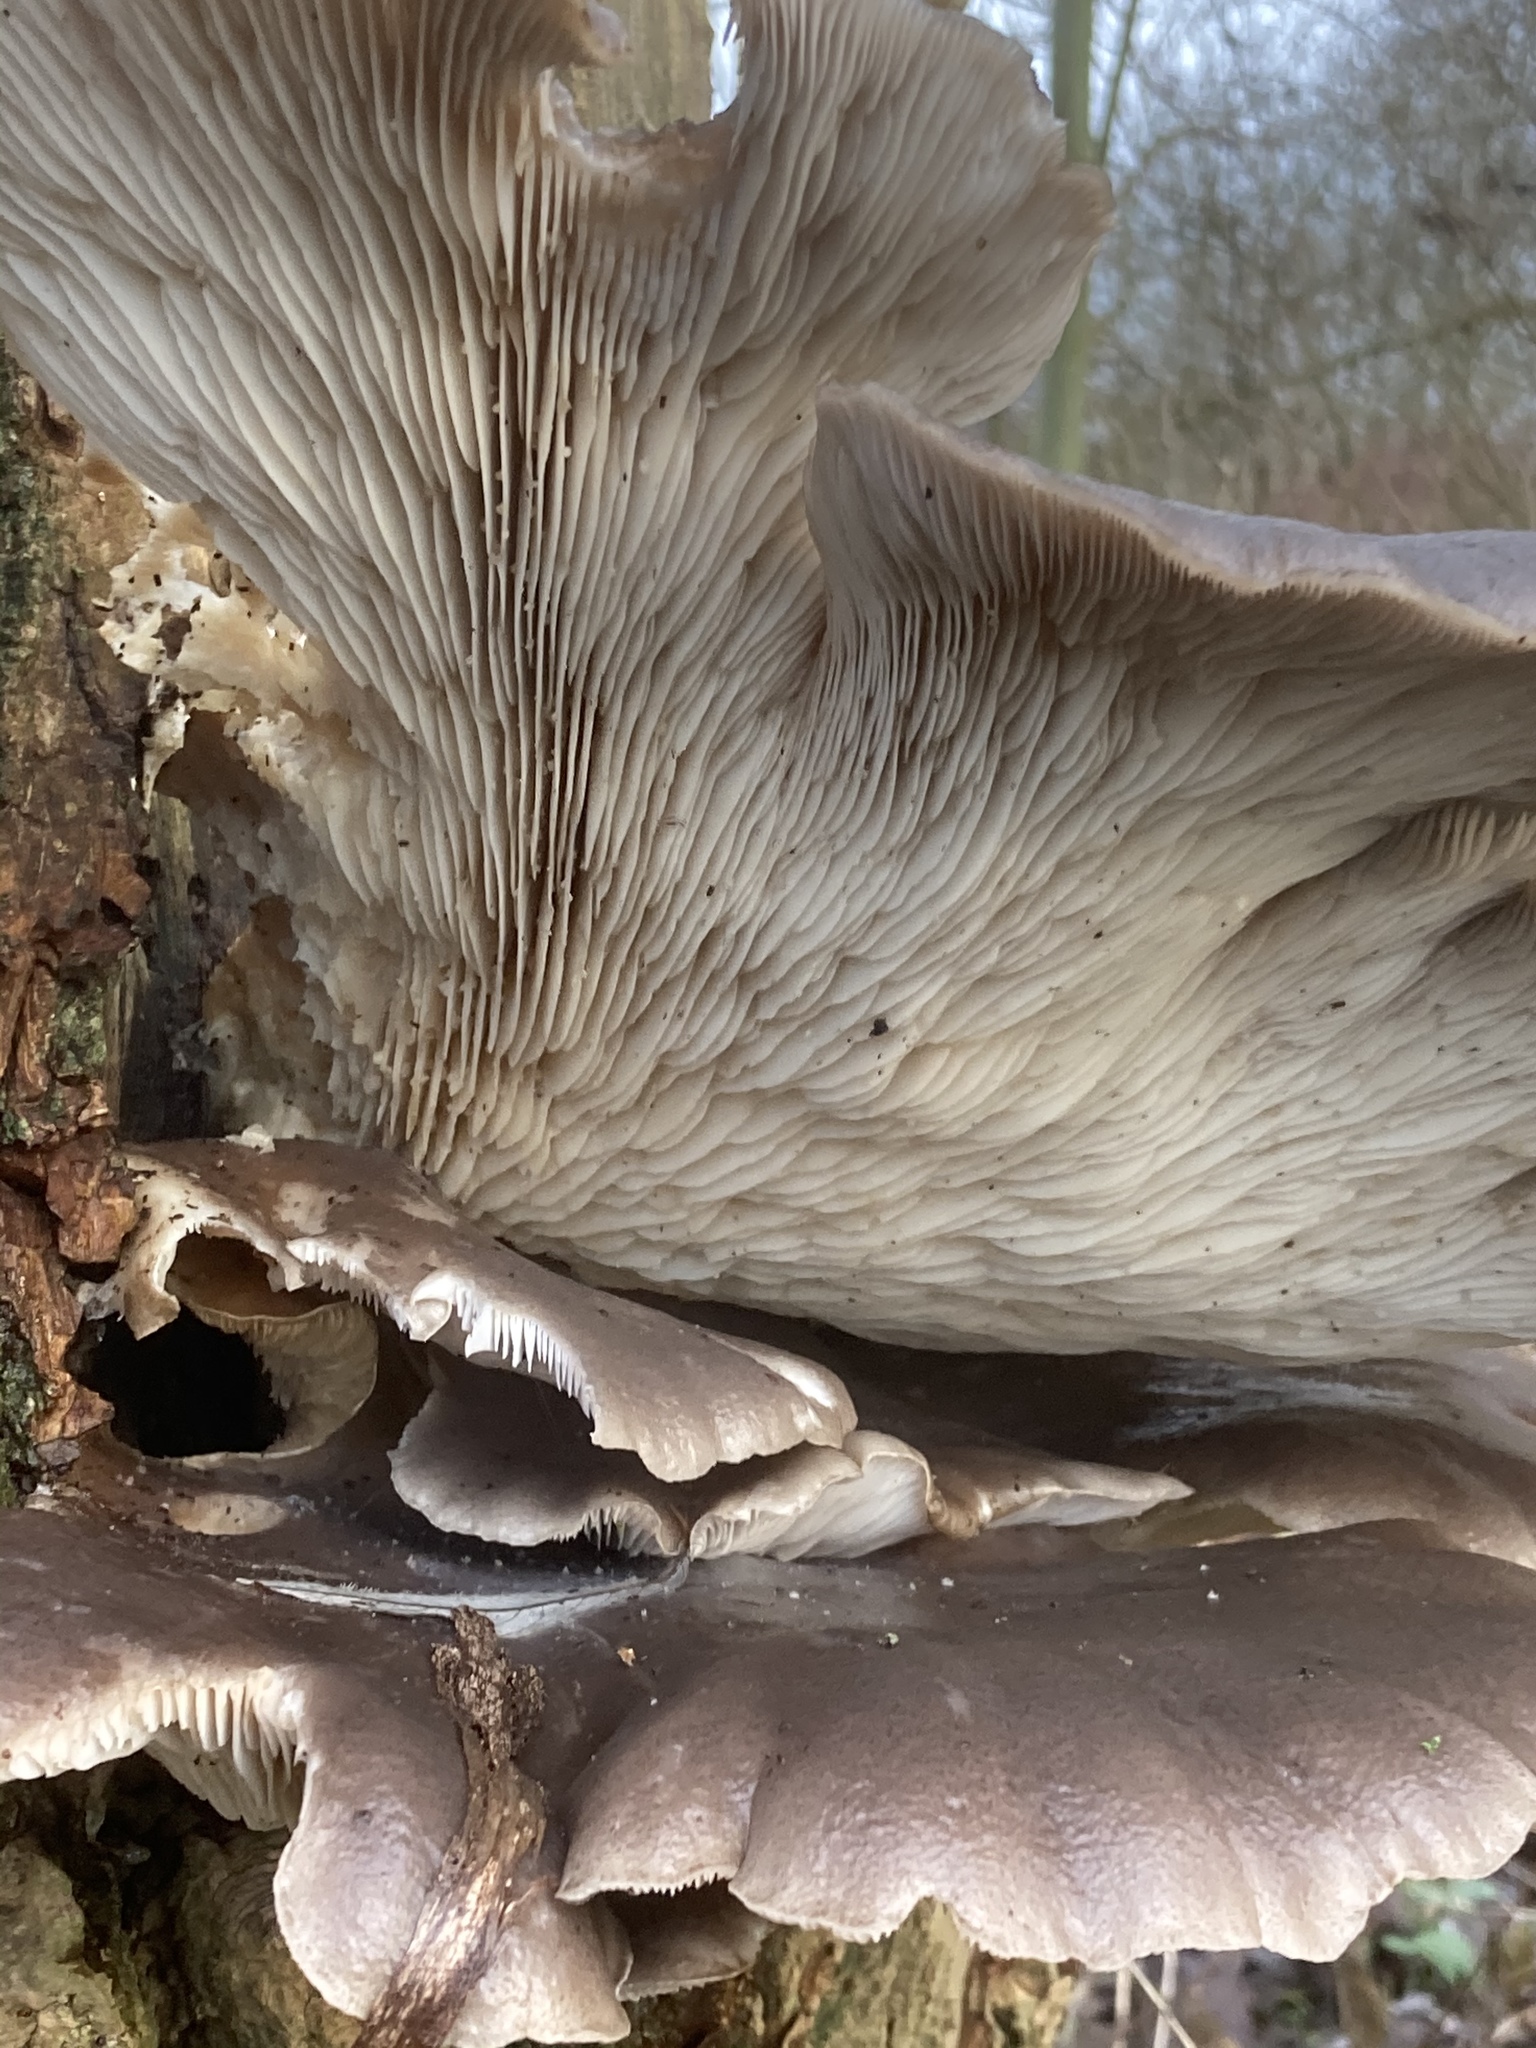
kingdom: Fungi
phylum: Basidiomycota
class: Agaricomycetes
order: Agaricales
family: Pleurotaceae
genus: Pleurotus
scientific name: Pleurotus ostreatus
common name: Oyster mushroom
